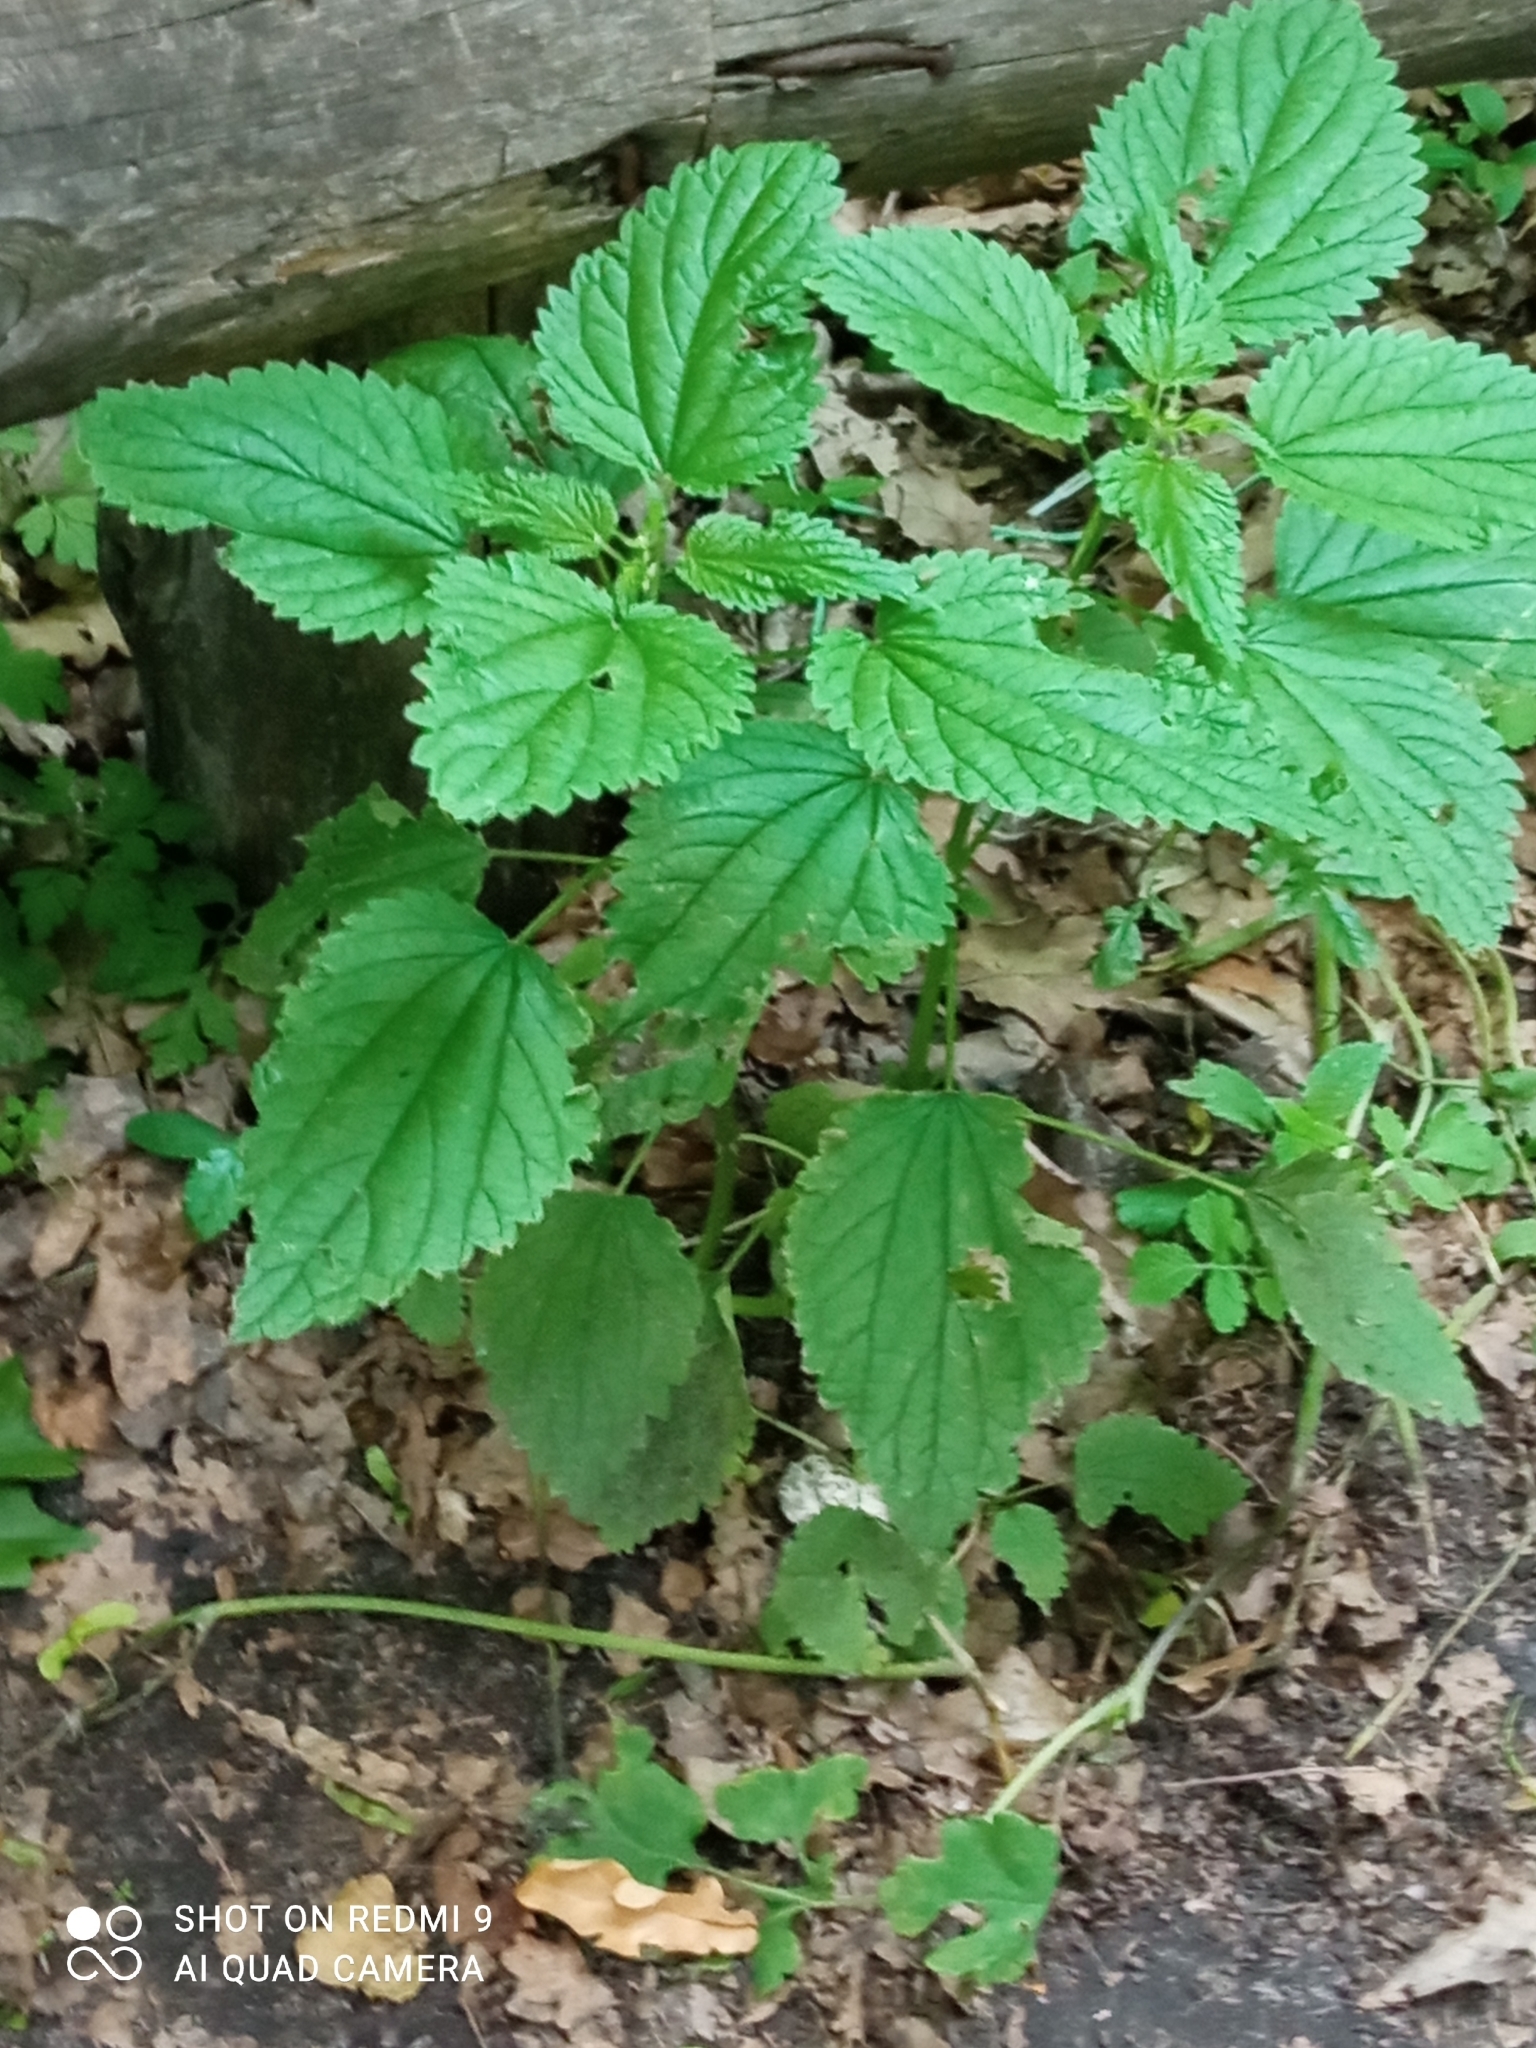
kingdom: Plantae
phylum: Tracheophyta
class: Magnoliopsida
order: Rosales
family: Urticaceae
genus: Urtica
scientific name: Urtica dioica
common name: Common nettle
